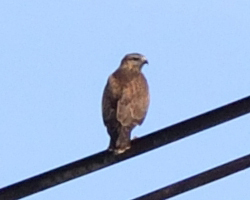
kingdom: Animalia
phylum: Chordata
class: Aves
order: Accipitriformes
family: Accipitridae
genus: Buteo
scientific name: Buteo buteo
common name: Common buzzard
